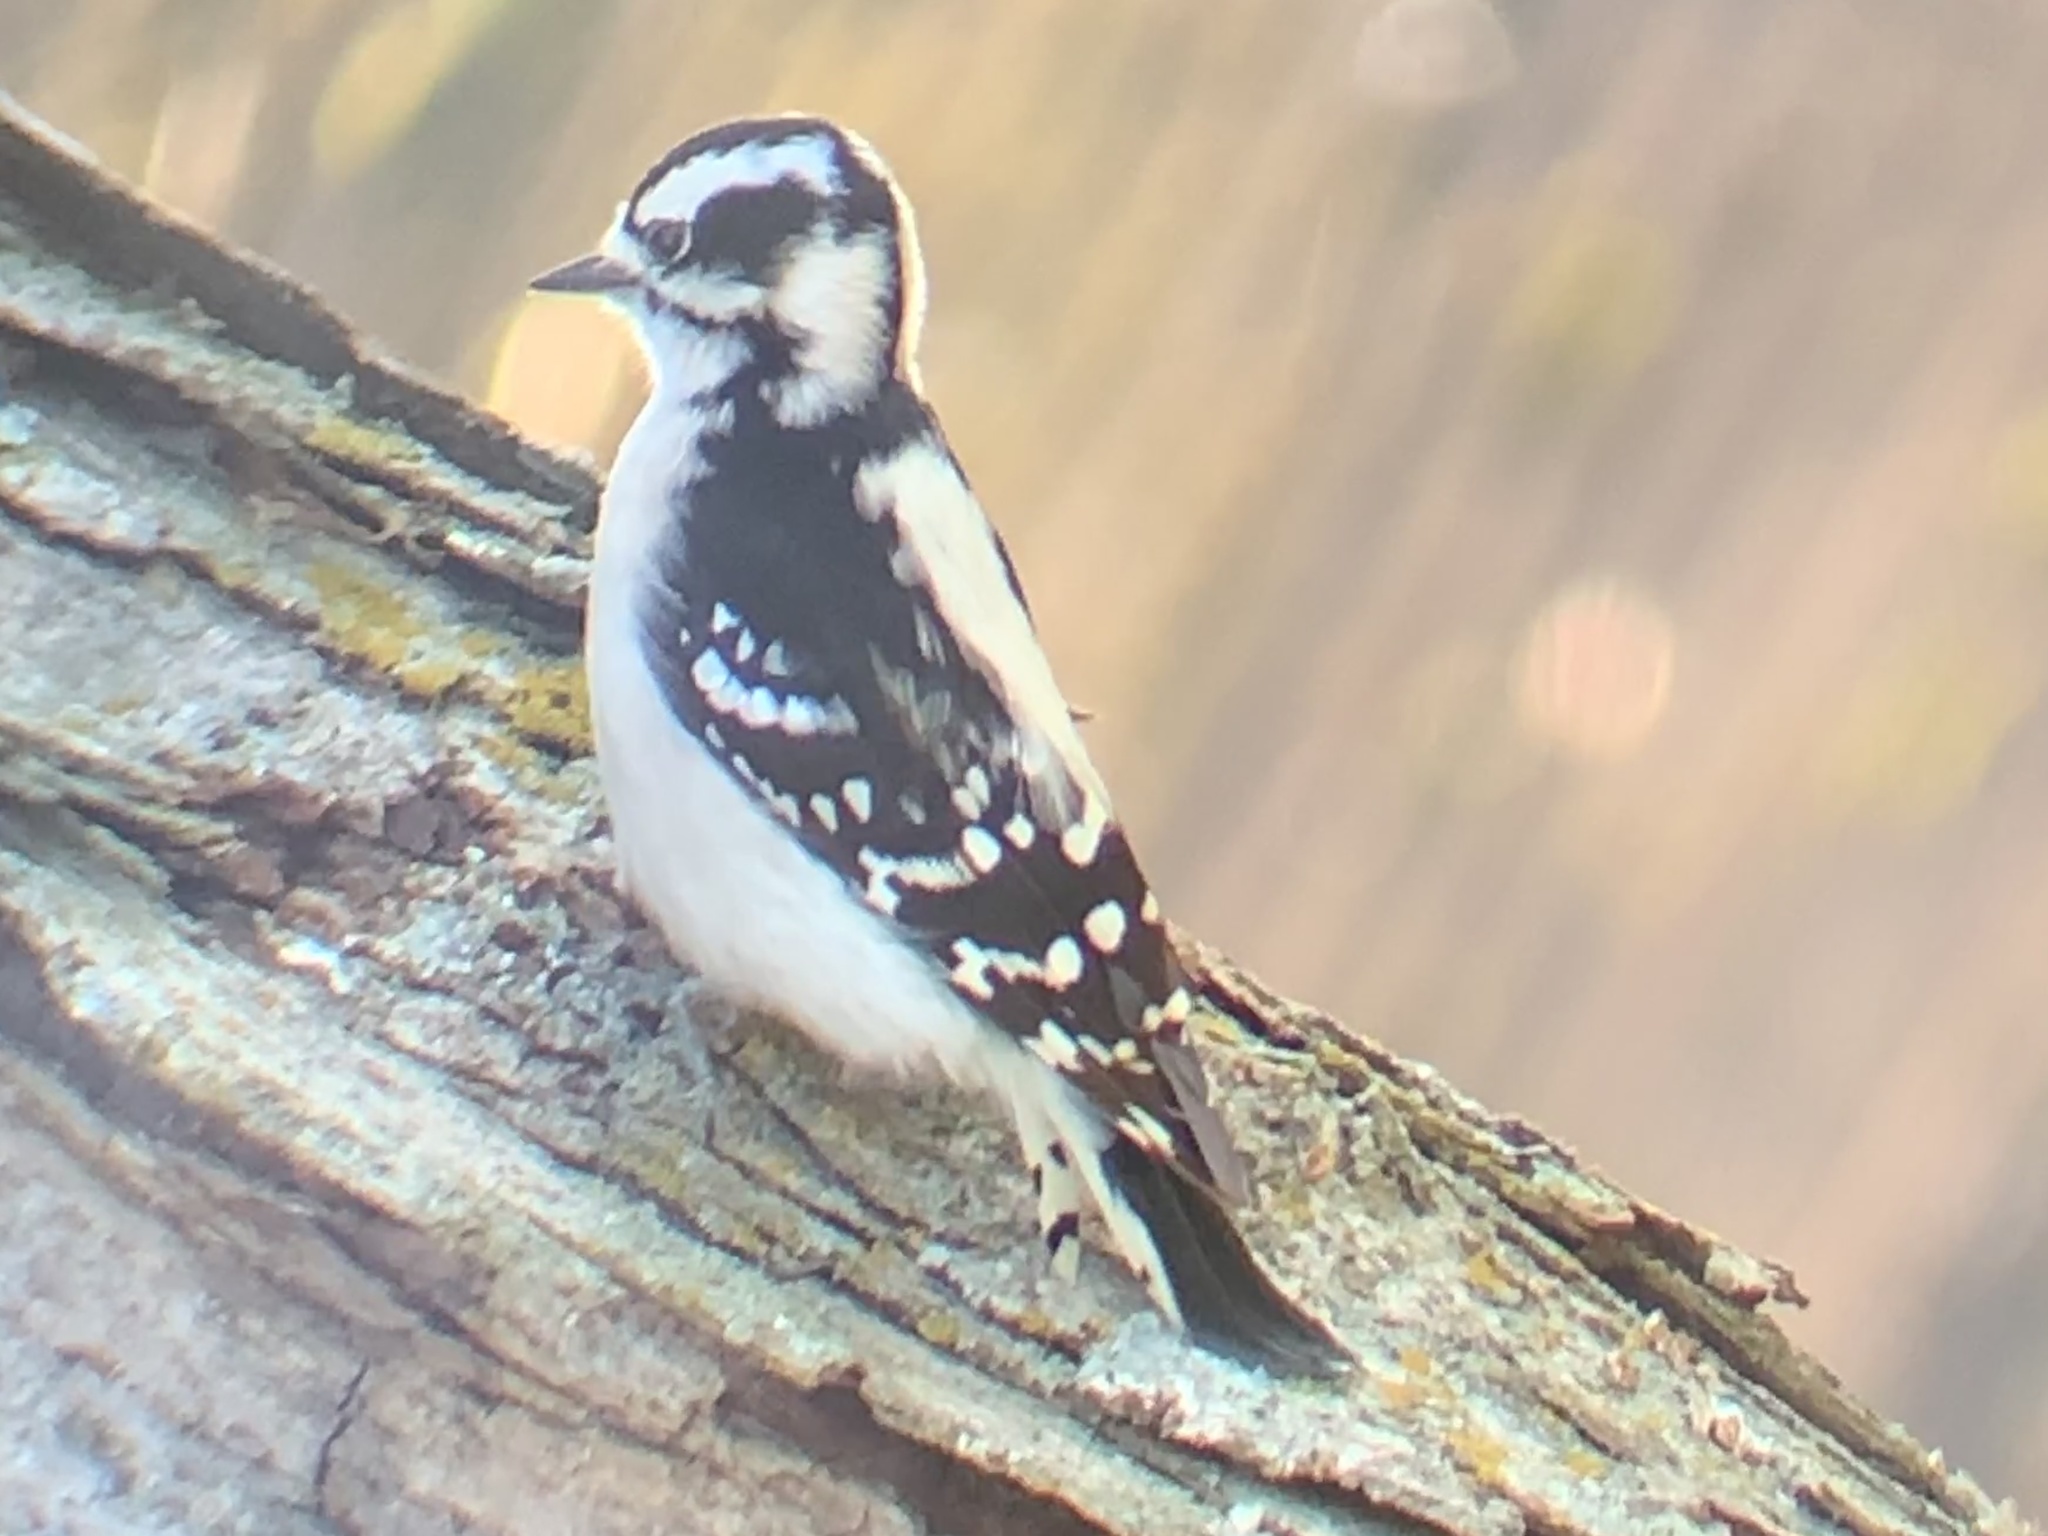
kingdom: Animalia
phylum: Chordata
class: Aves
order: Piciformes
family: Picidae
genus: Dryobates
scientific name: Dryobates pubescens
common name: Downy woodpecker
